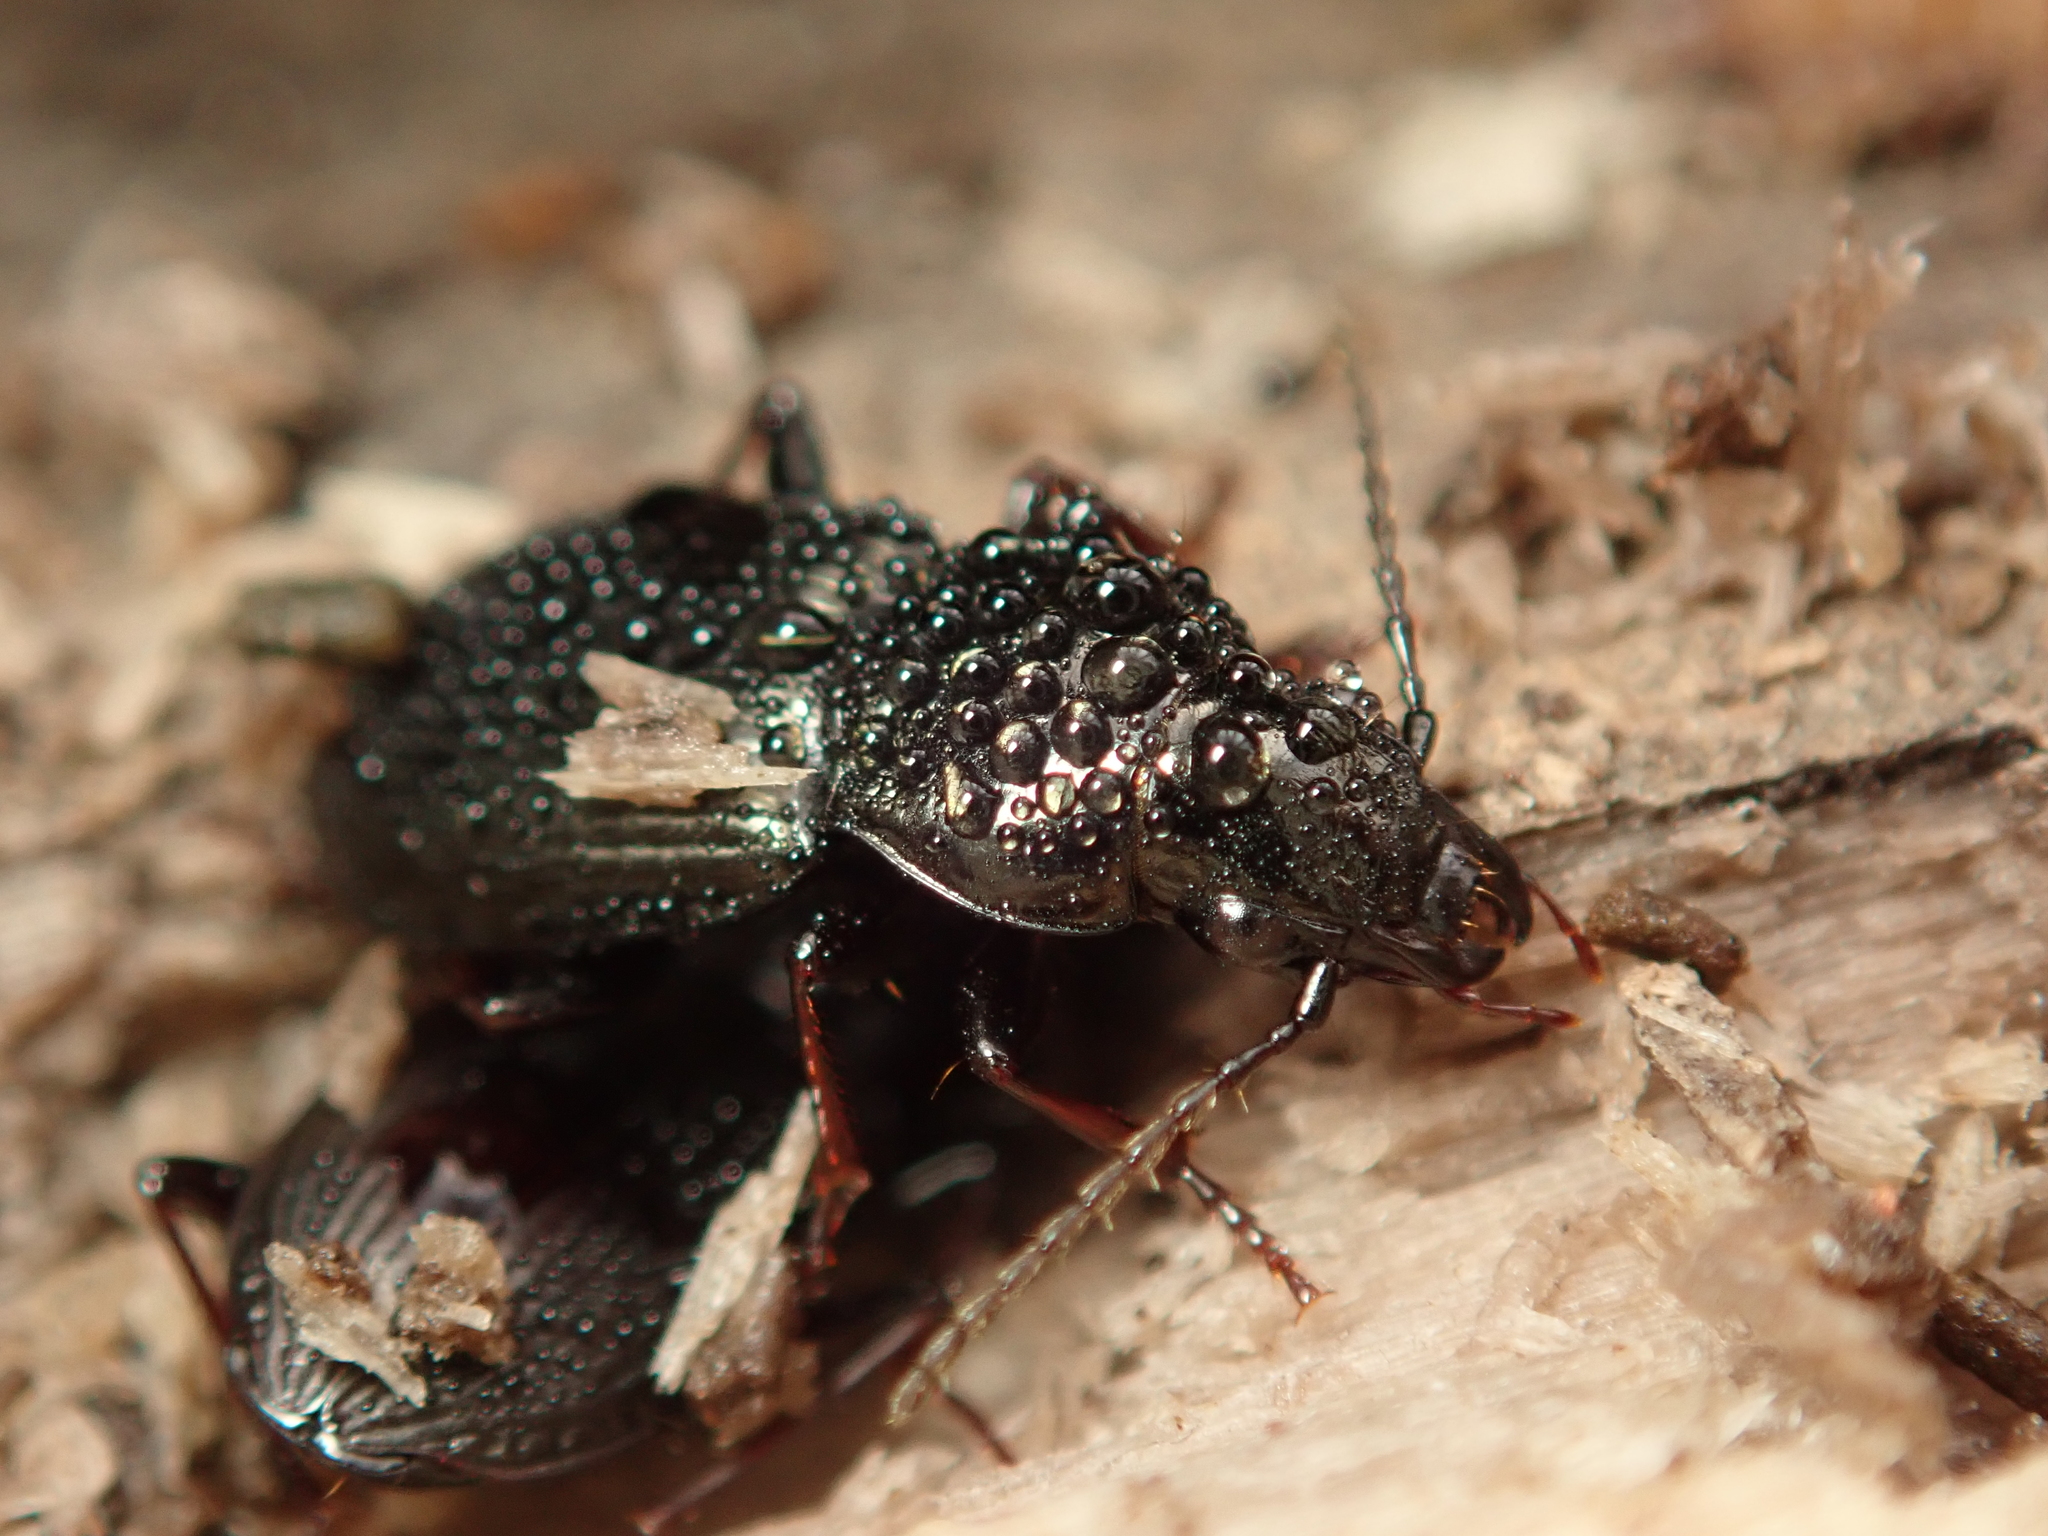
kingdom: Animalia
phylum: Arthropoda
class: Insecta
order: Coleoptera
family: Carabidae
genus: Pterostichus
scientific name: Pterostichus oblongopunctatus
